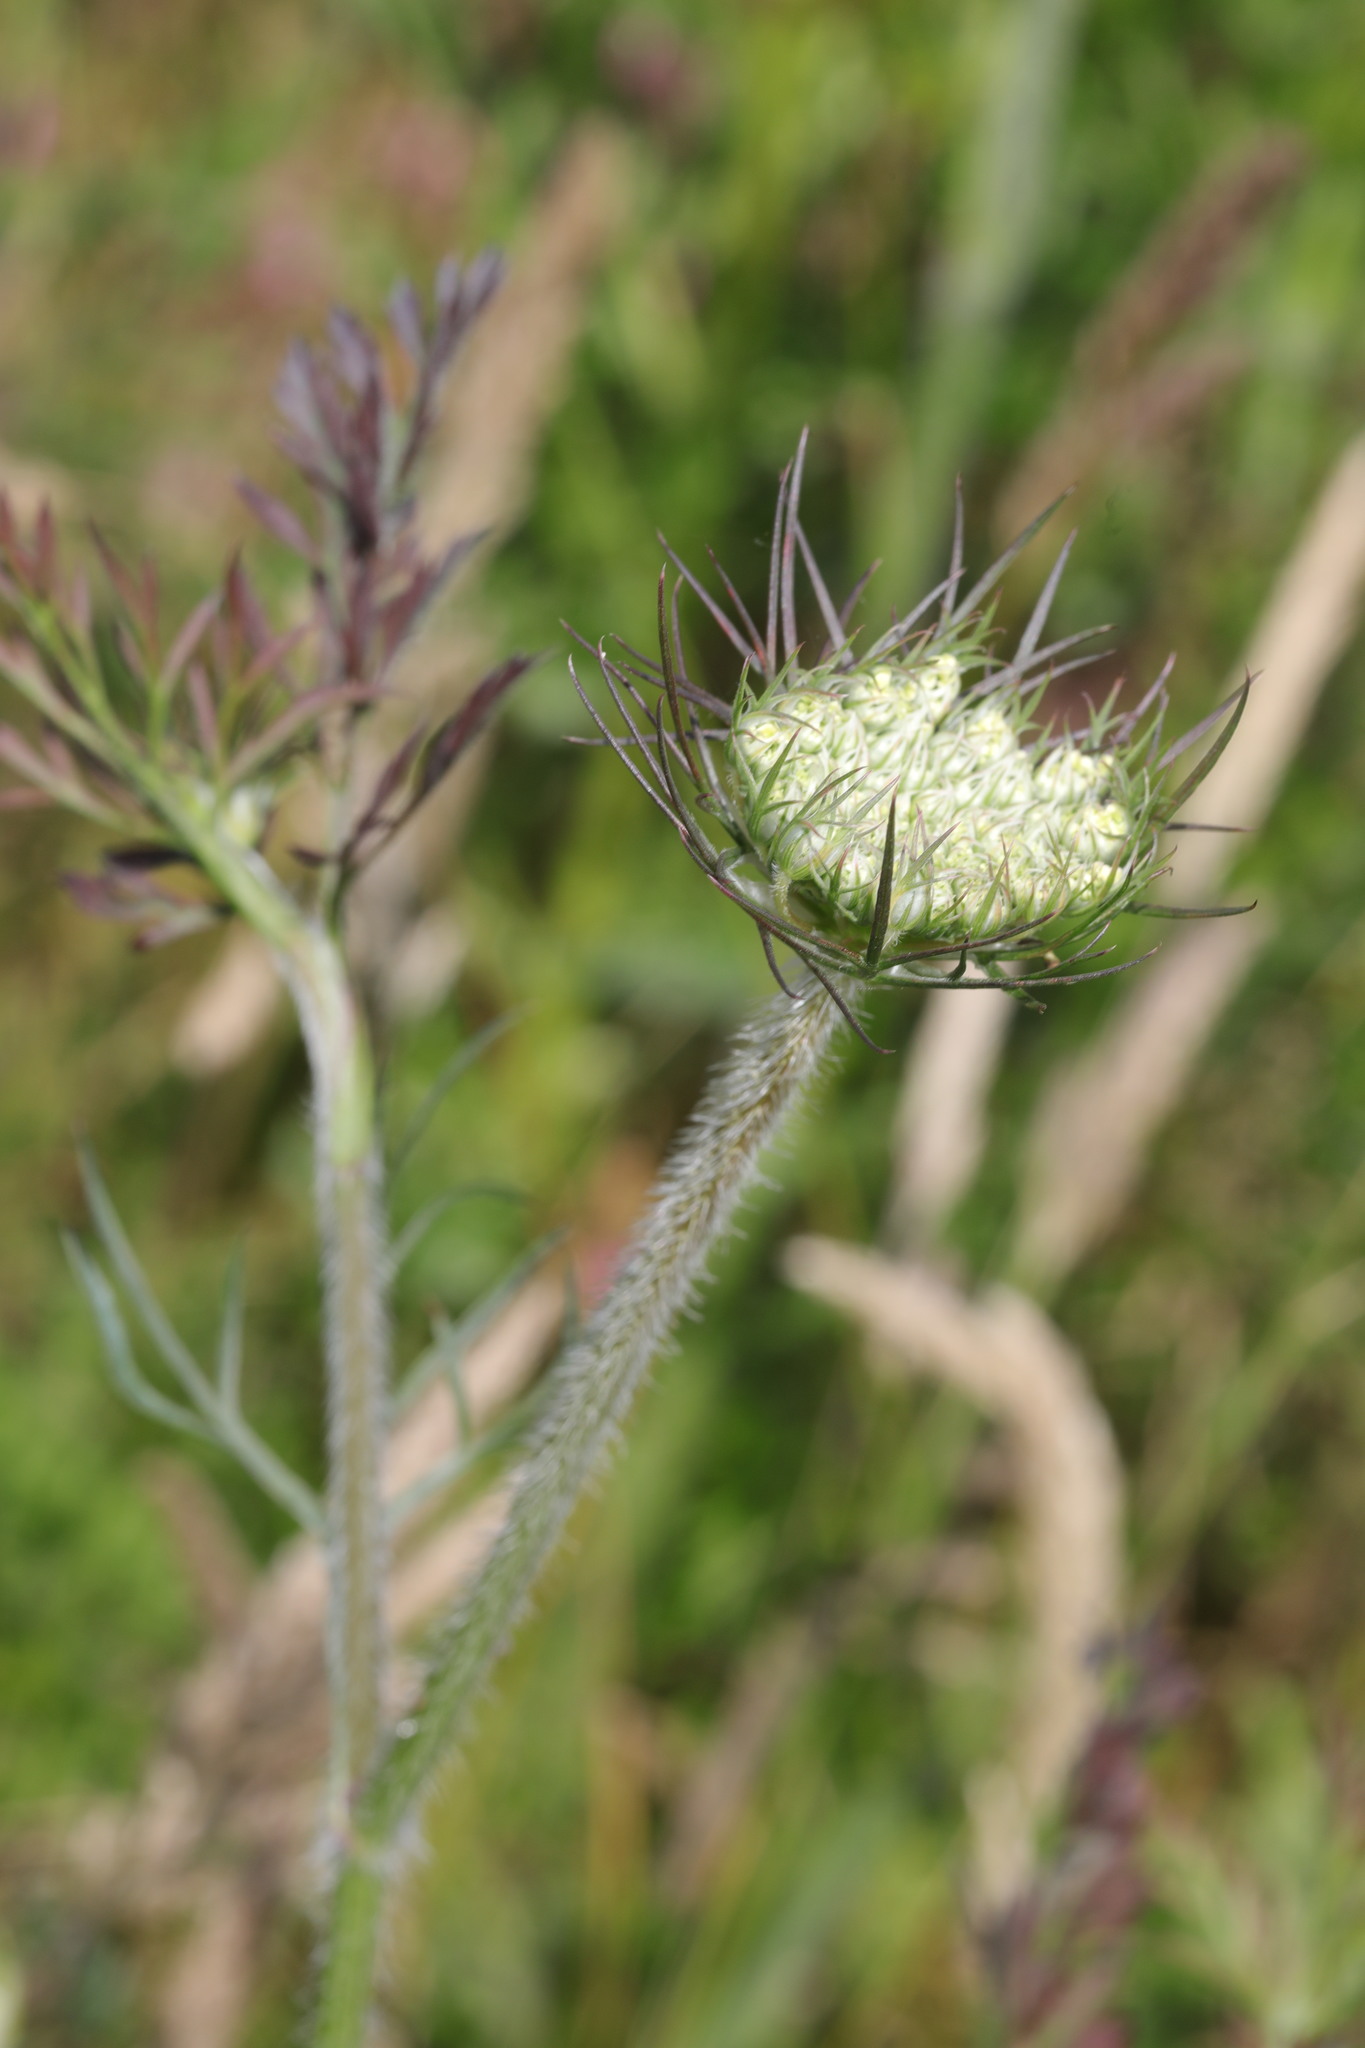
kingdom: Plantae
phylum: Tracheophyta
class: Magnoliopsida
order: Apiales
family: Apiaceae
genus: Daucus
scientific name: Daucus carota
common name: Wild carrot
